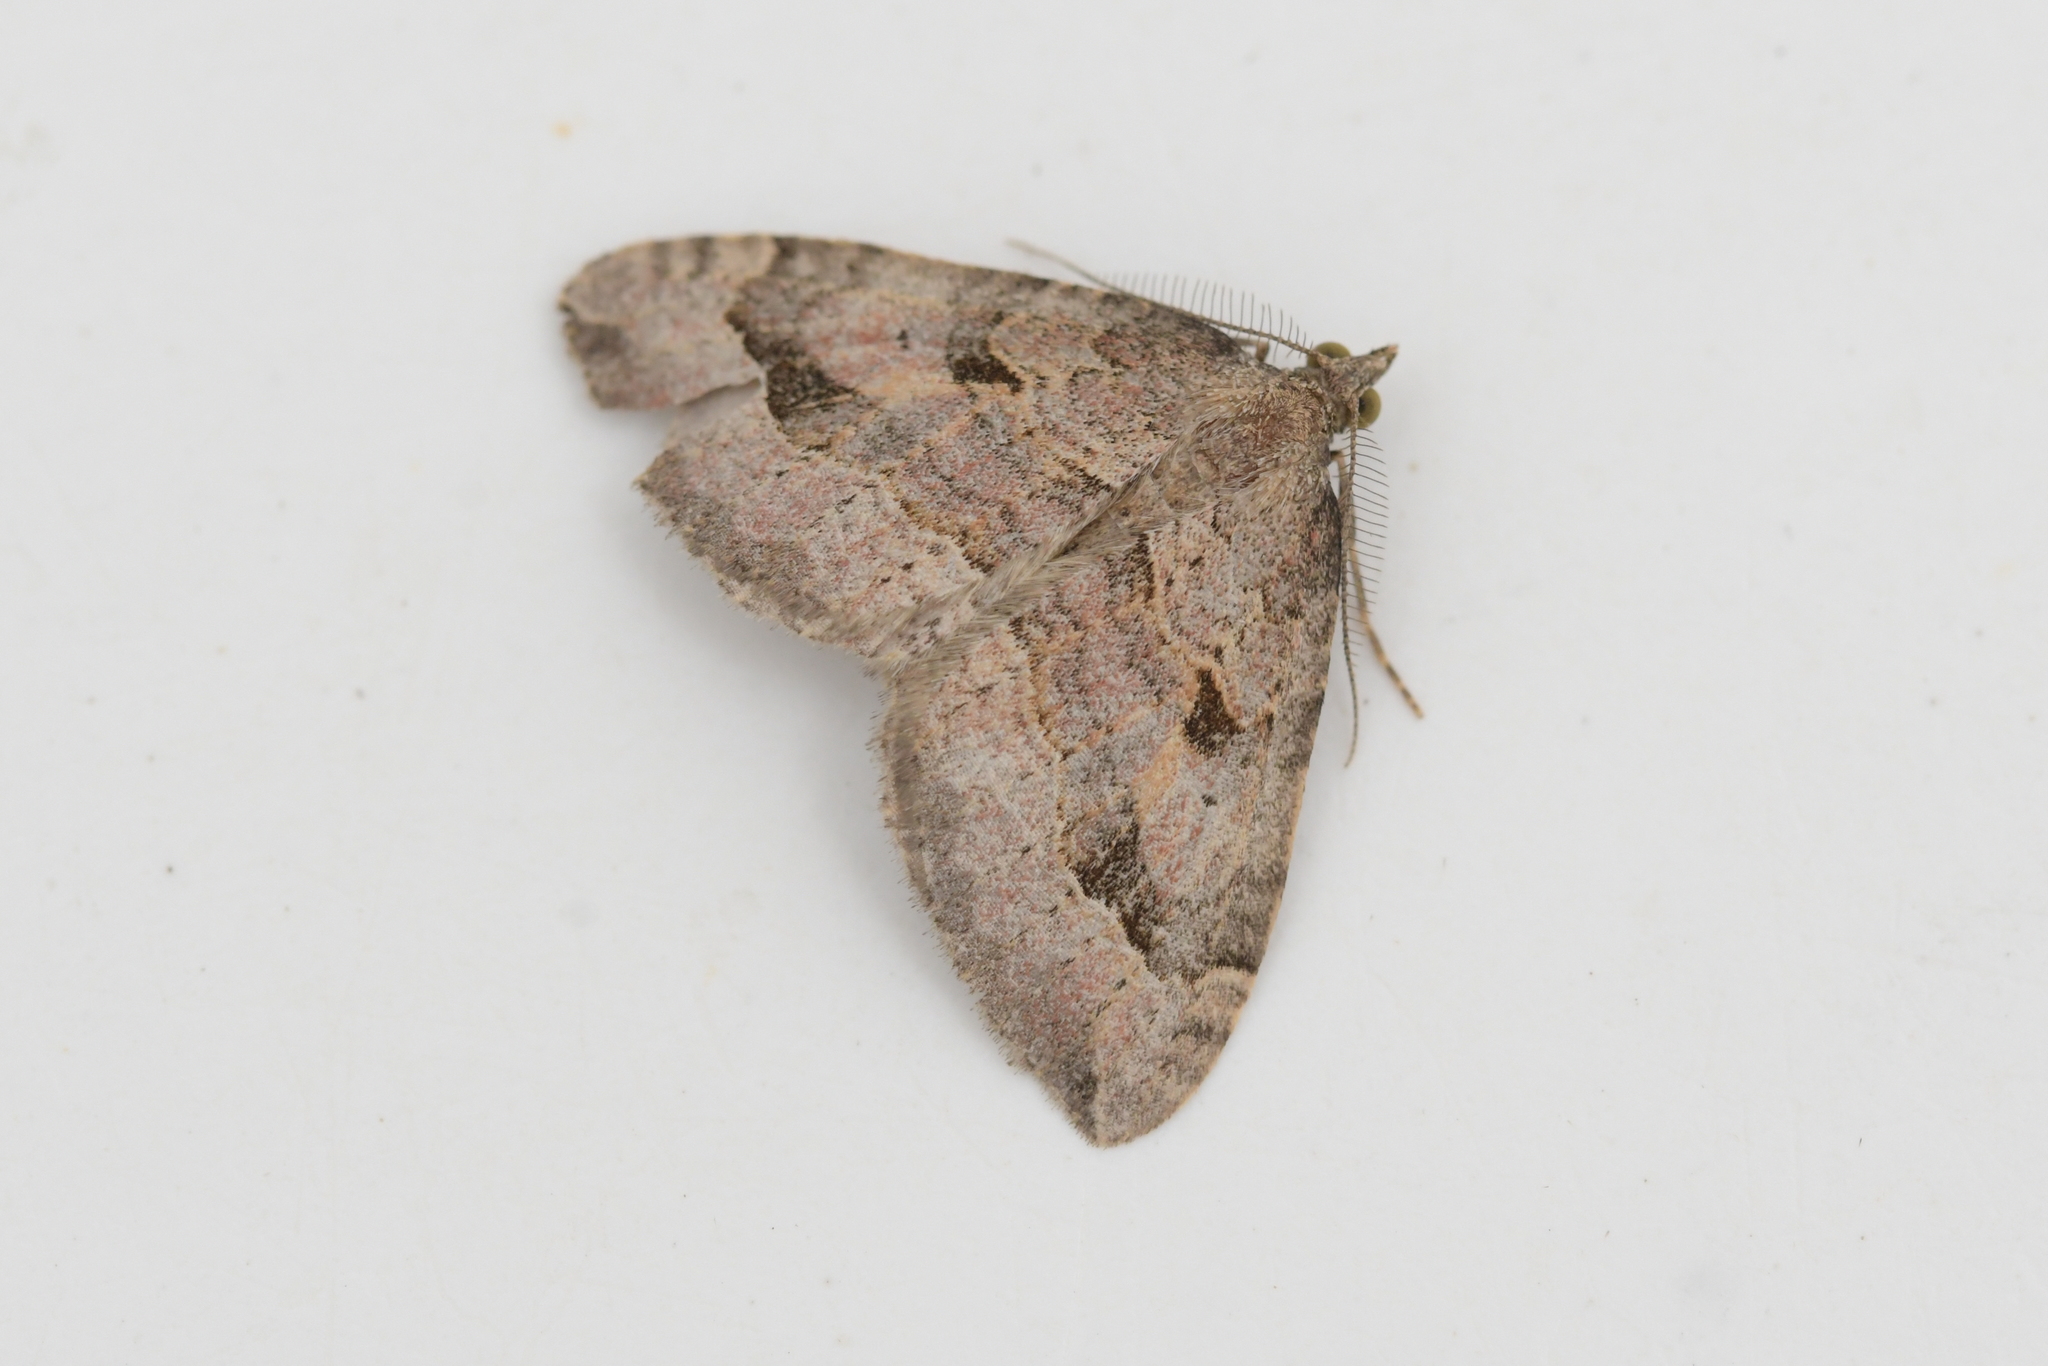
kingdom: Animalia
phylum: Arthropoda
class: Insecta
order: Lepidoptera
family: Geometridae
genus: Epyaxa
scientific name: Epyaxa rosearia
